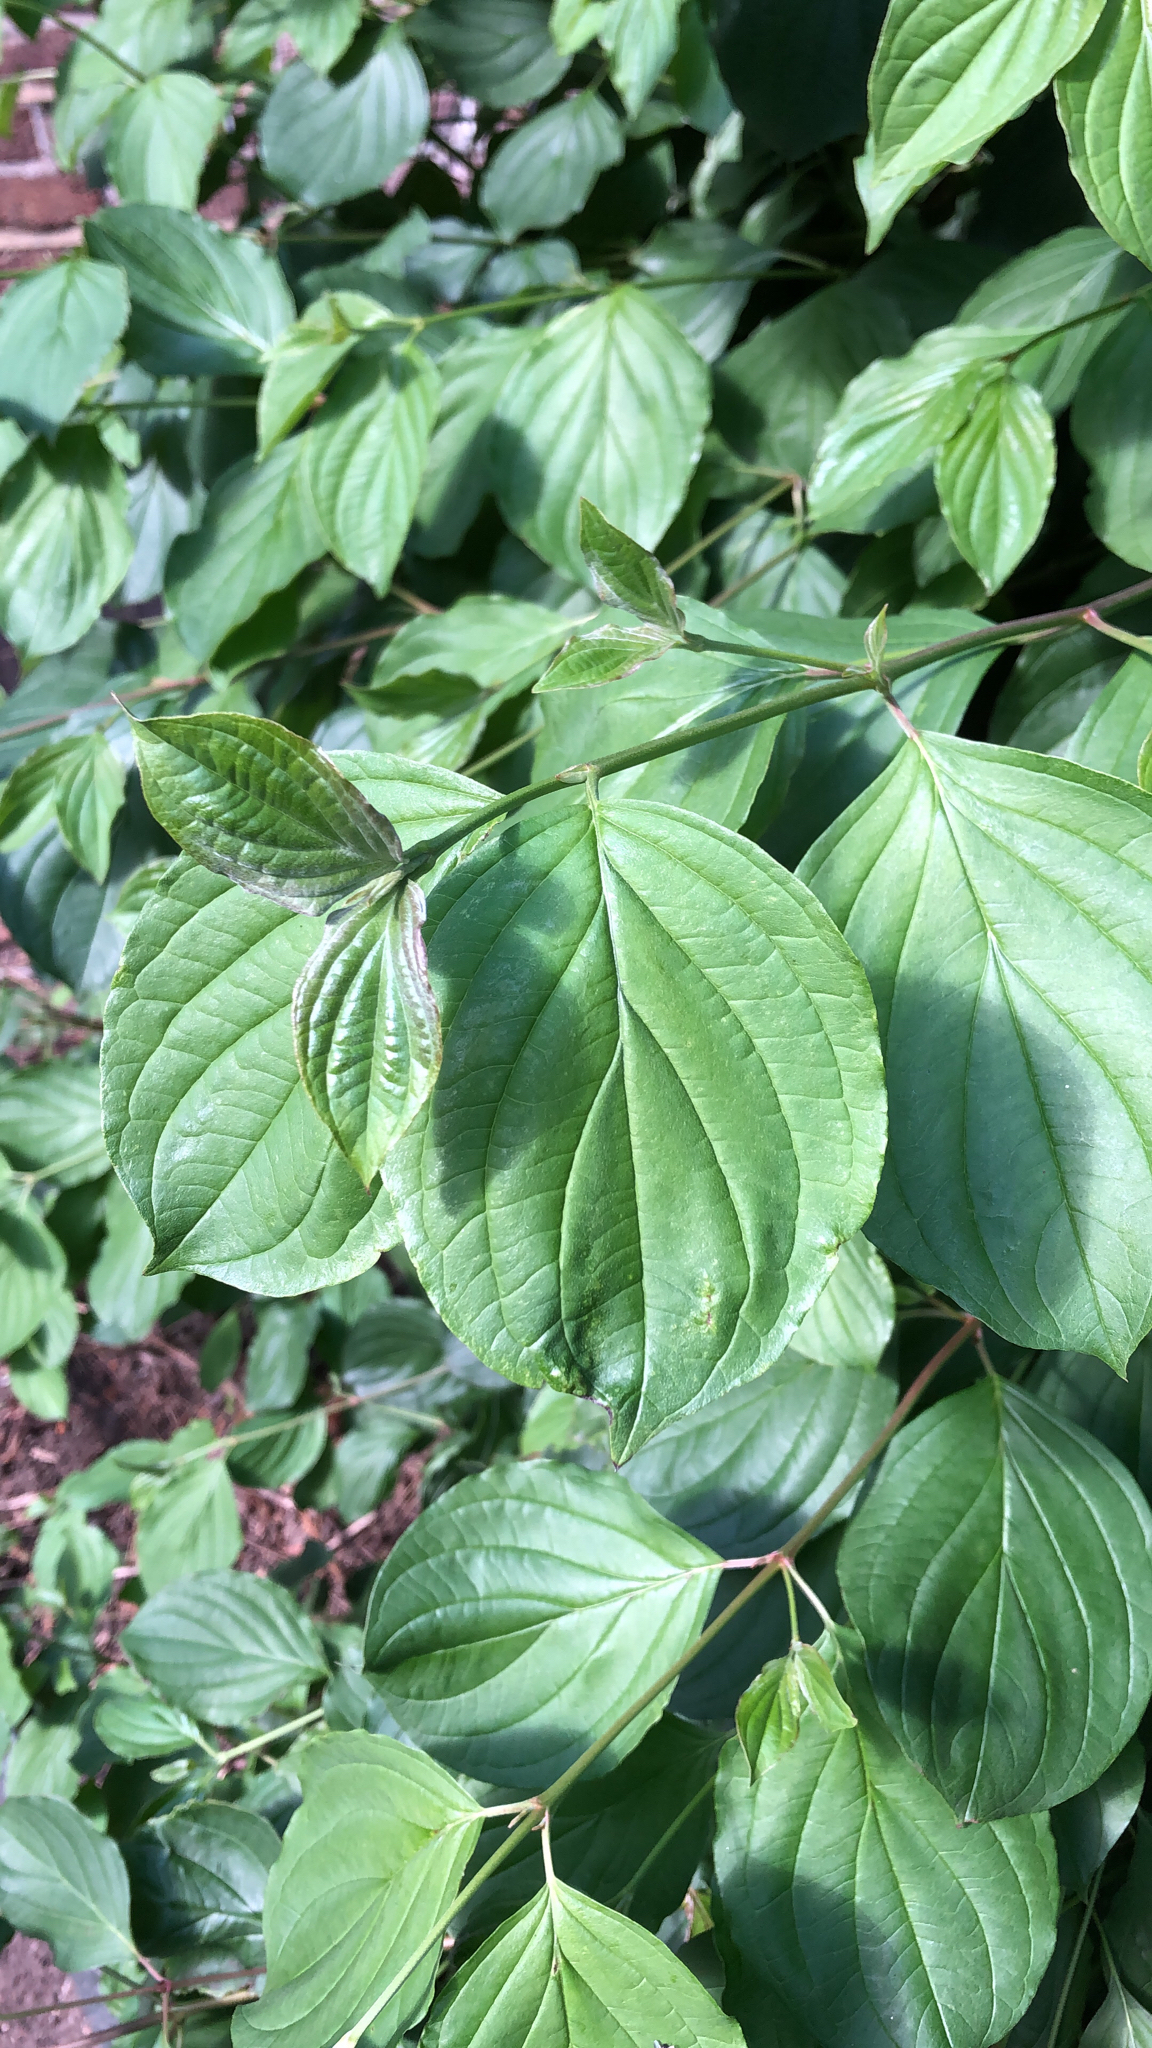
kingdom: Plantae
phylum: Tracheophyta
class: Magnoliopsida
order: Cornales
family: Cornaceae
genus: Cornus
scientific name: Cornus sanguinea
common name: Dogwood
